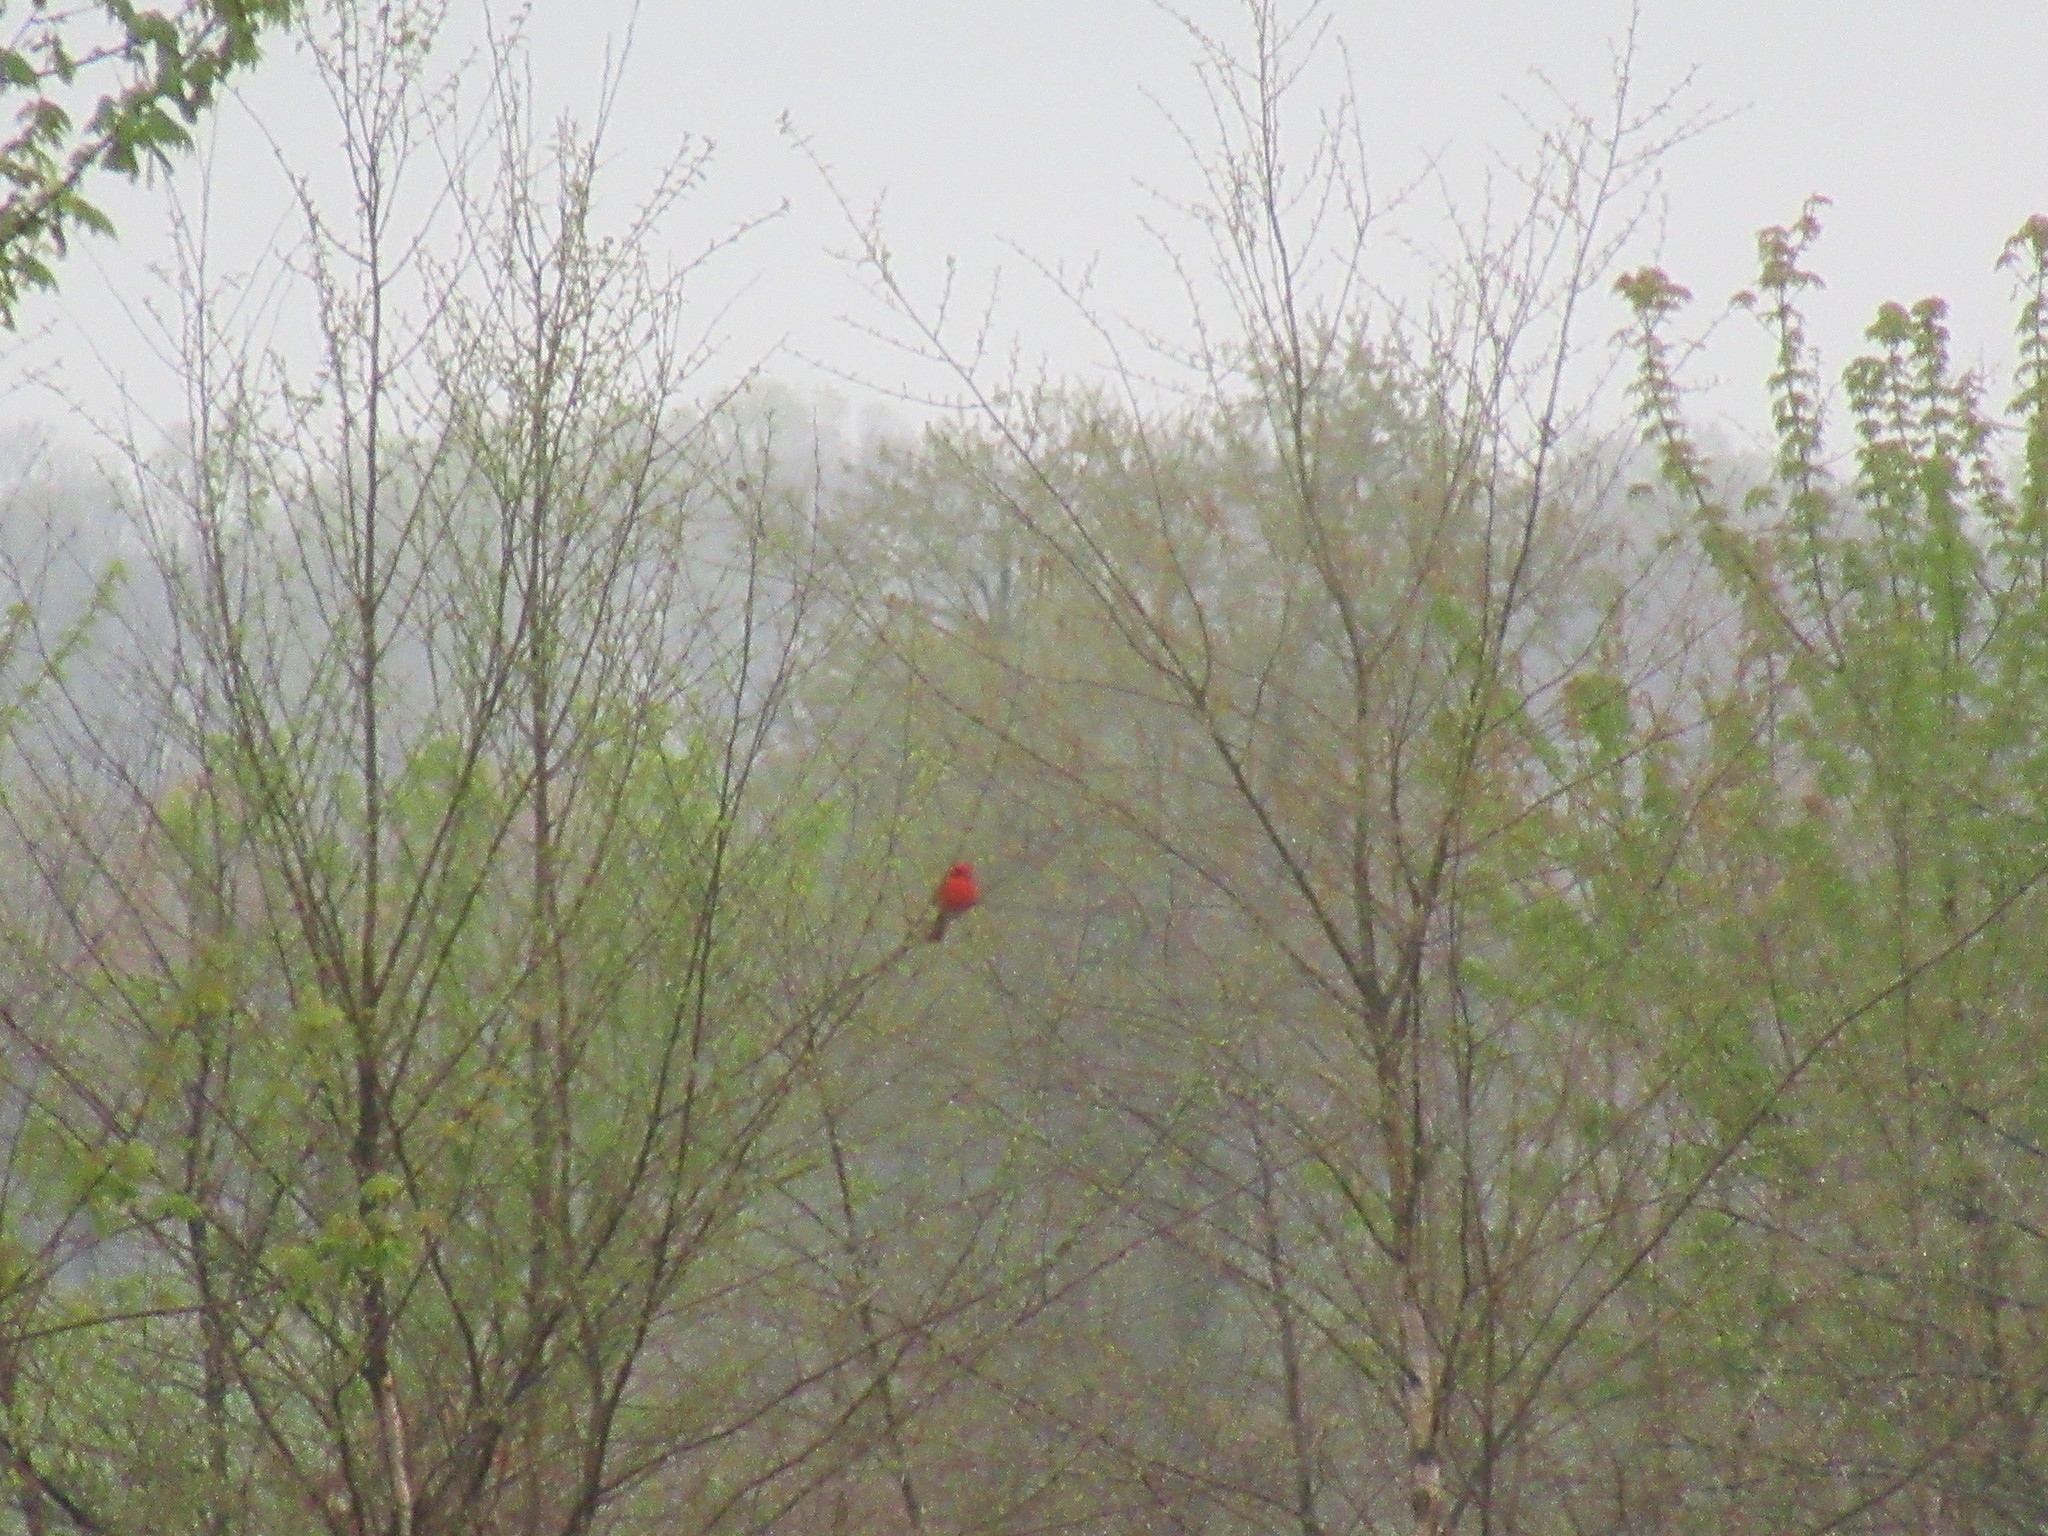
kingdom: Animalia
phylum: Chordata
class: Aves
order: Passeriformes
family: Cardinalidae
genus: Cardinalis
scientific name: Cardinalis cardinalis
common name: Northern cardinal
